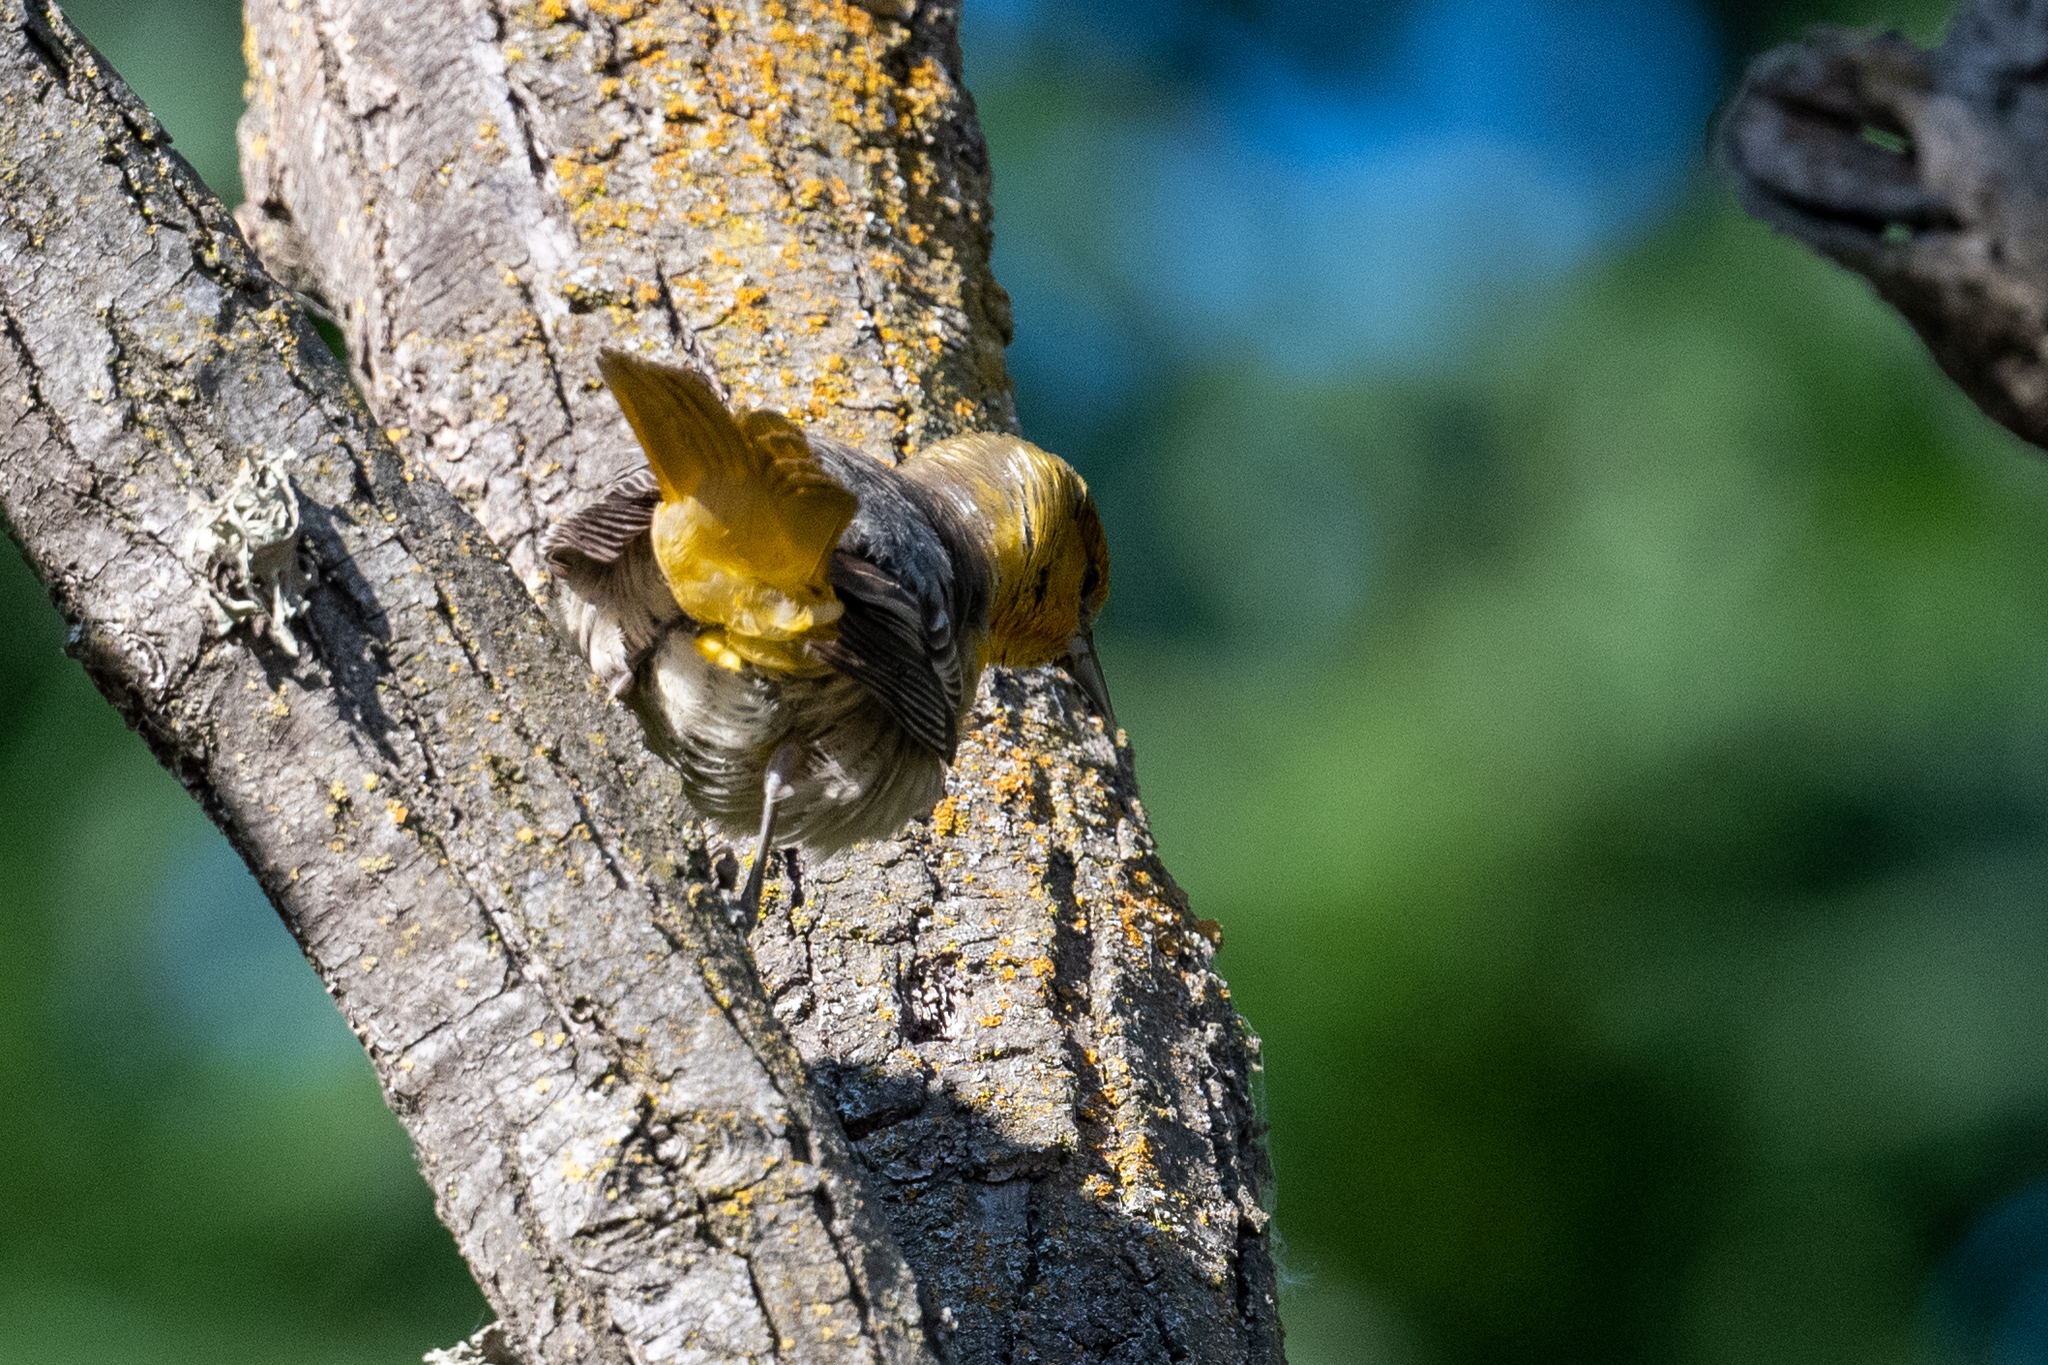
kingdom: Animalia
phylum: Chordata
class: Aves
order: Passeriformes
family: Icteridae
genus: Icterus
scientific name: Icterus bullockii
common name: Bullock's oriole
